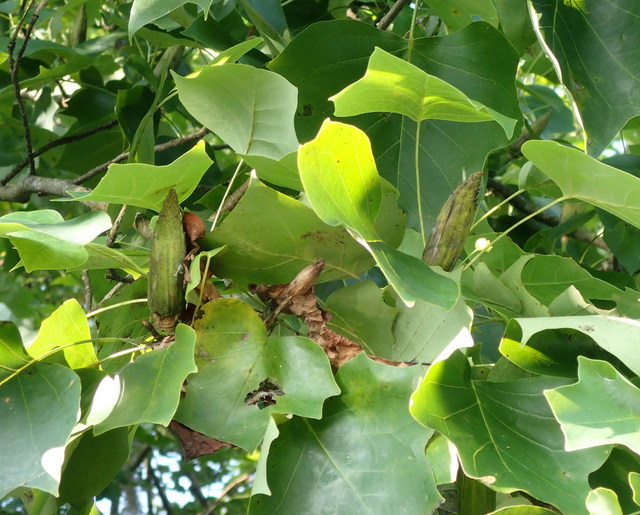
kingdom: Plantae
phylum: Tracheophyta
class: Magnoliopsida
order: Magnoliales
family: Magnoliaceae
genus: Liriodendron
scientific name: Liriodendron tulipifera
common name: Tulip tree
